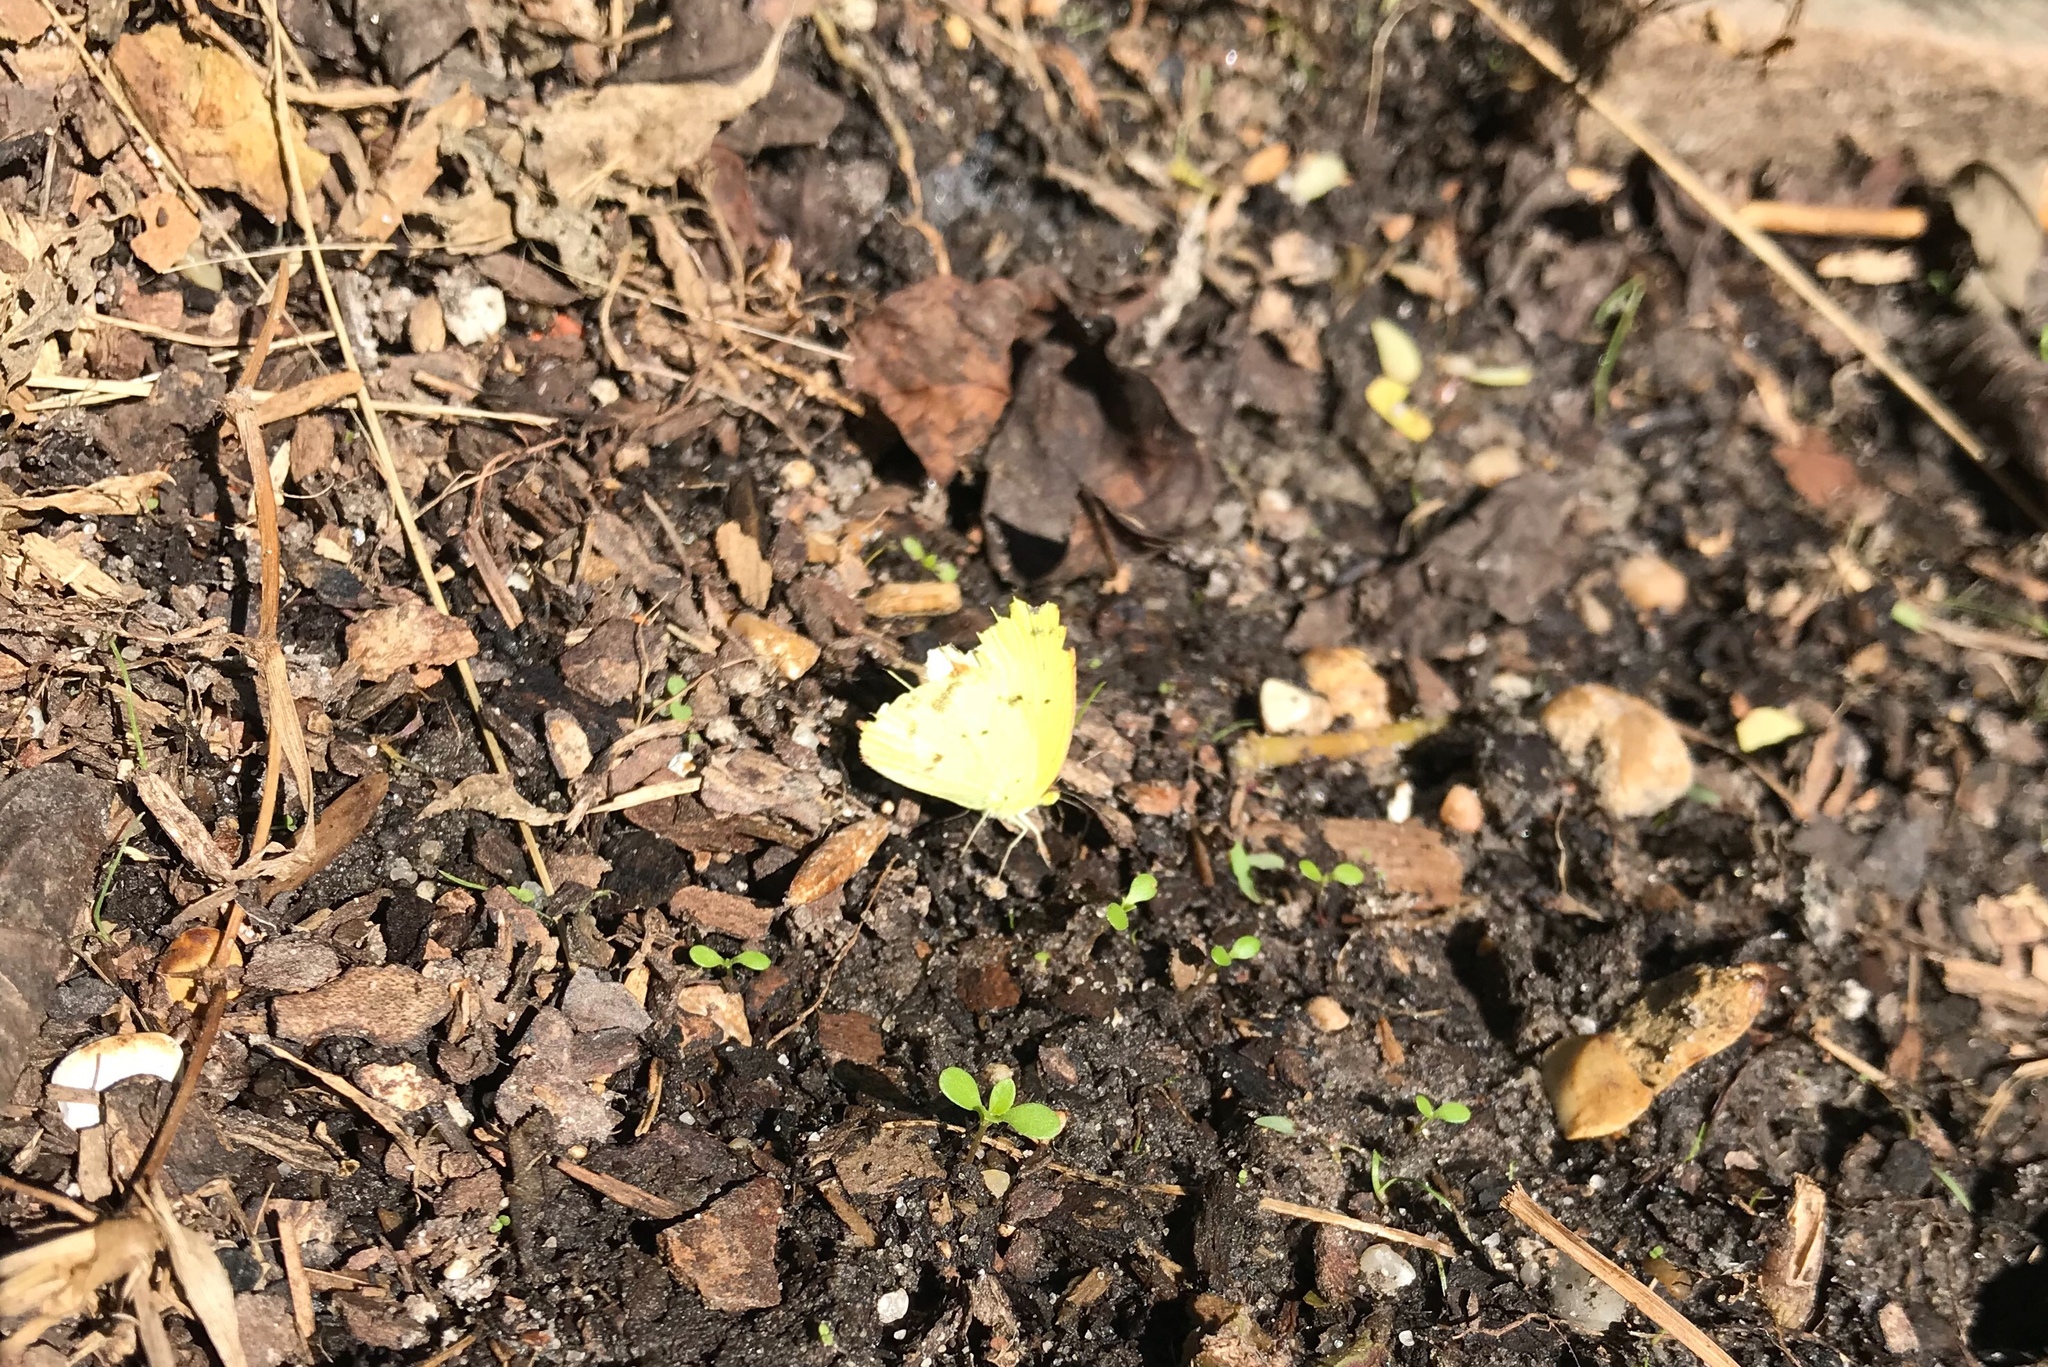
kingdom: Animalia
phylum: Arthropoda
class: Insecta
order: Lepidoptera
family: Pieridae
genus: Pyrisitia
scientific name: Pyrisitia lisa
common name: Little yellow
